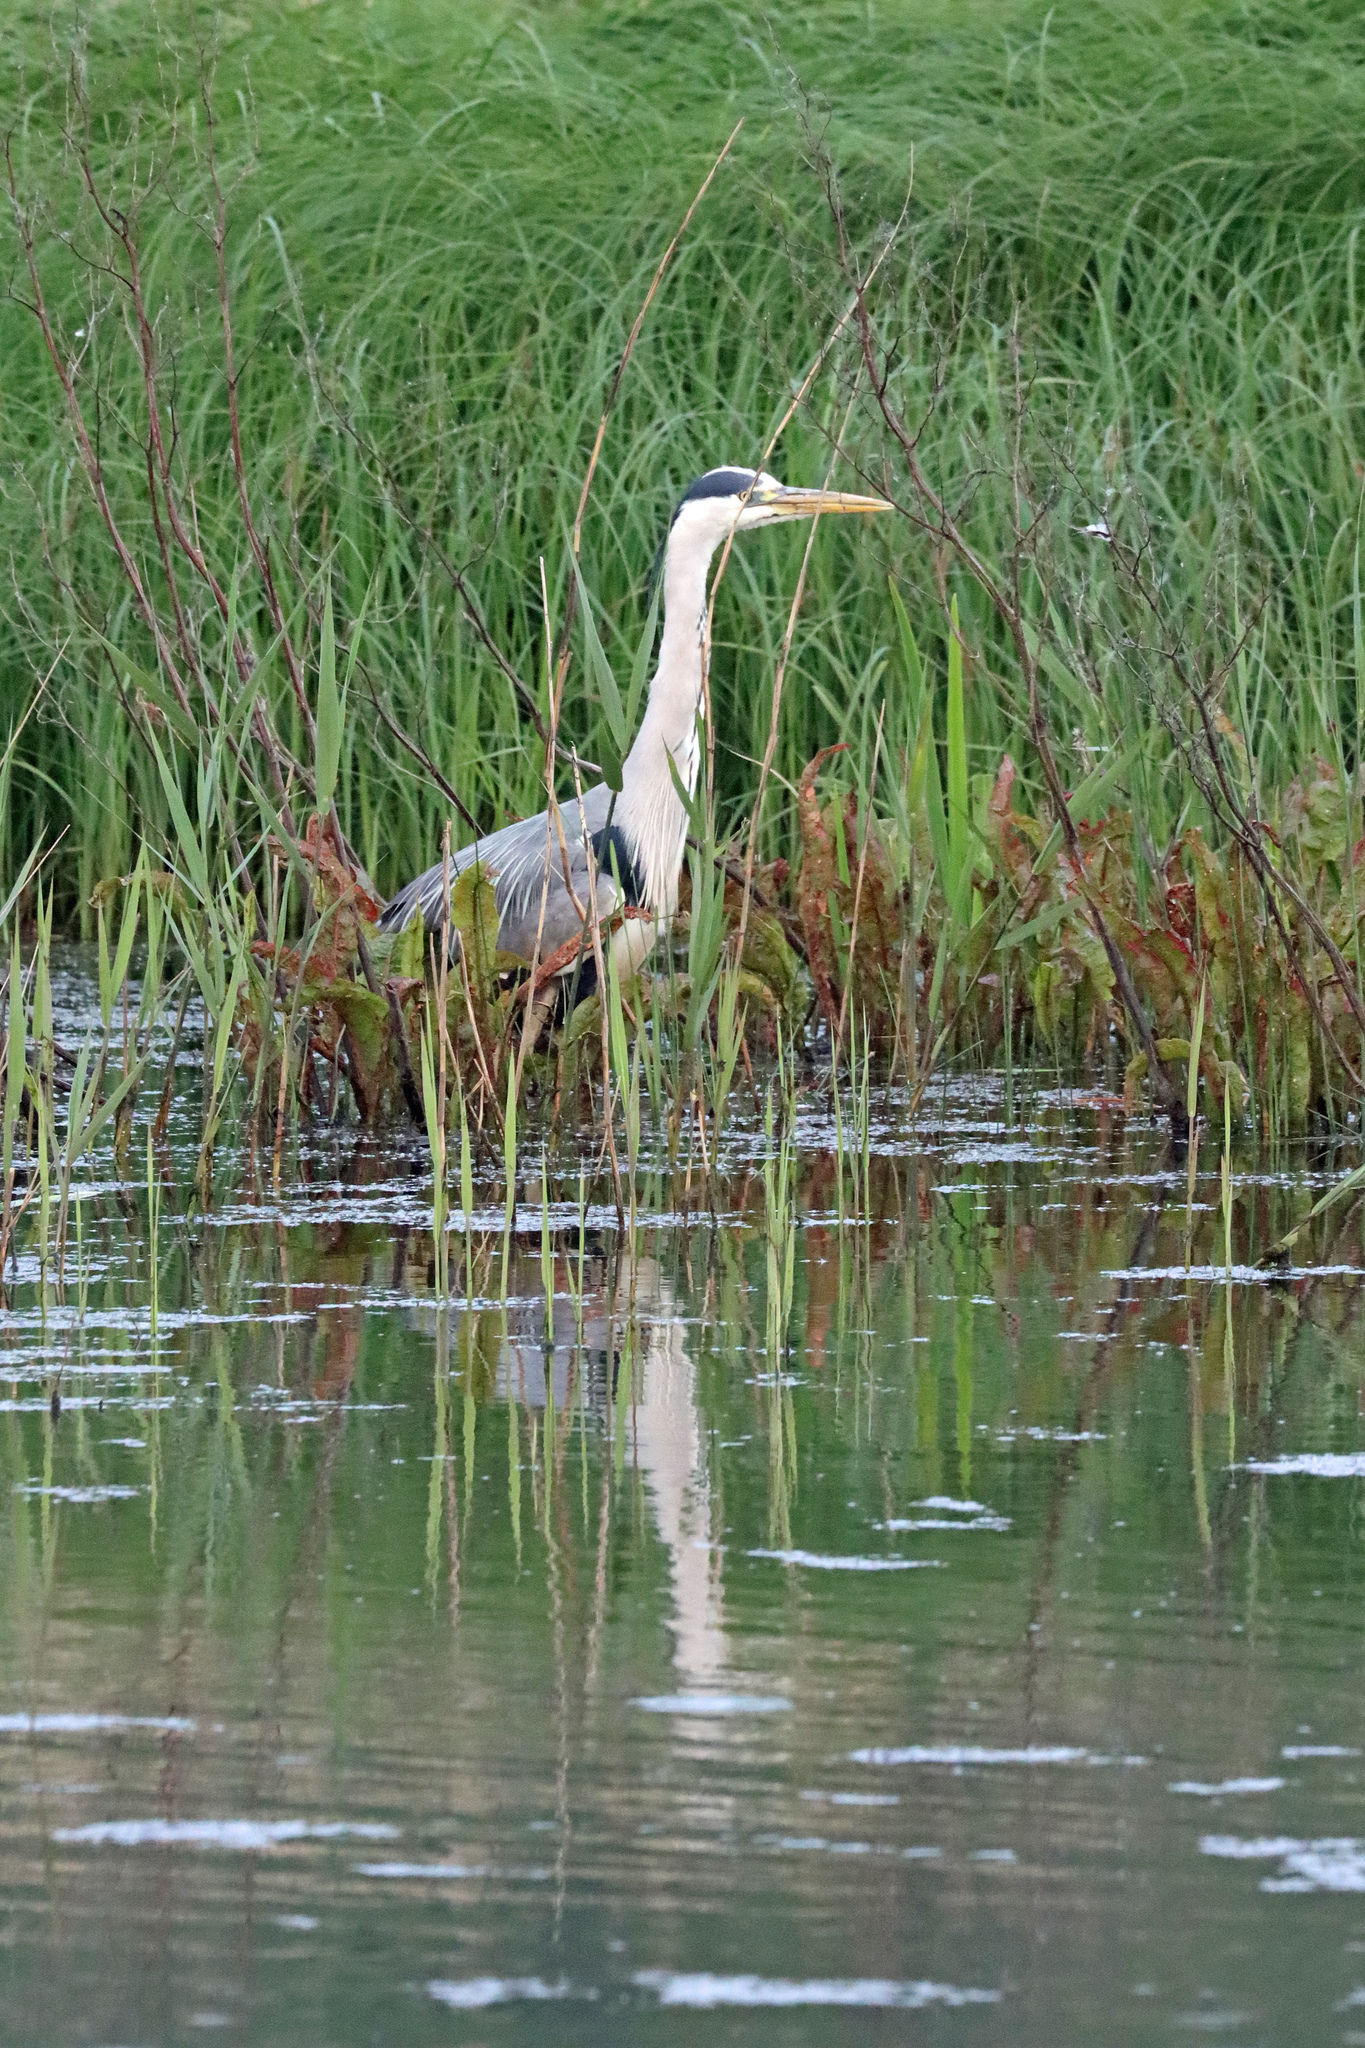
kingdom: Animalia
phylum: Chordata
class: Aves
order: Pelecaniformes
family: Ardeidae
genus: Ardea
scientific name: Ardea cinerea
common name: Grey heron
